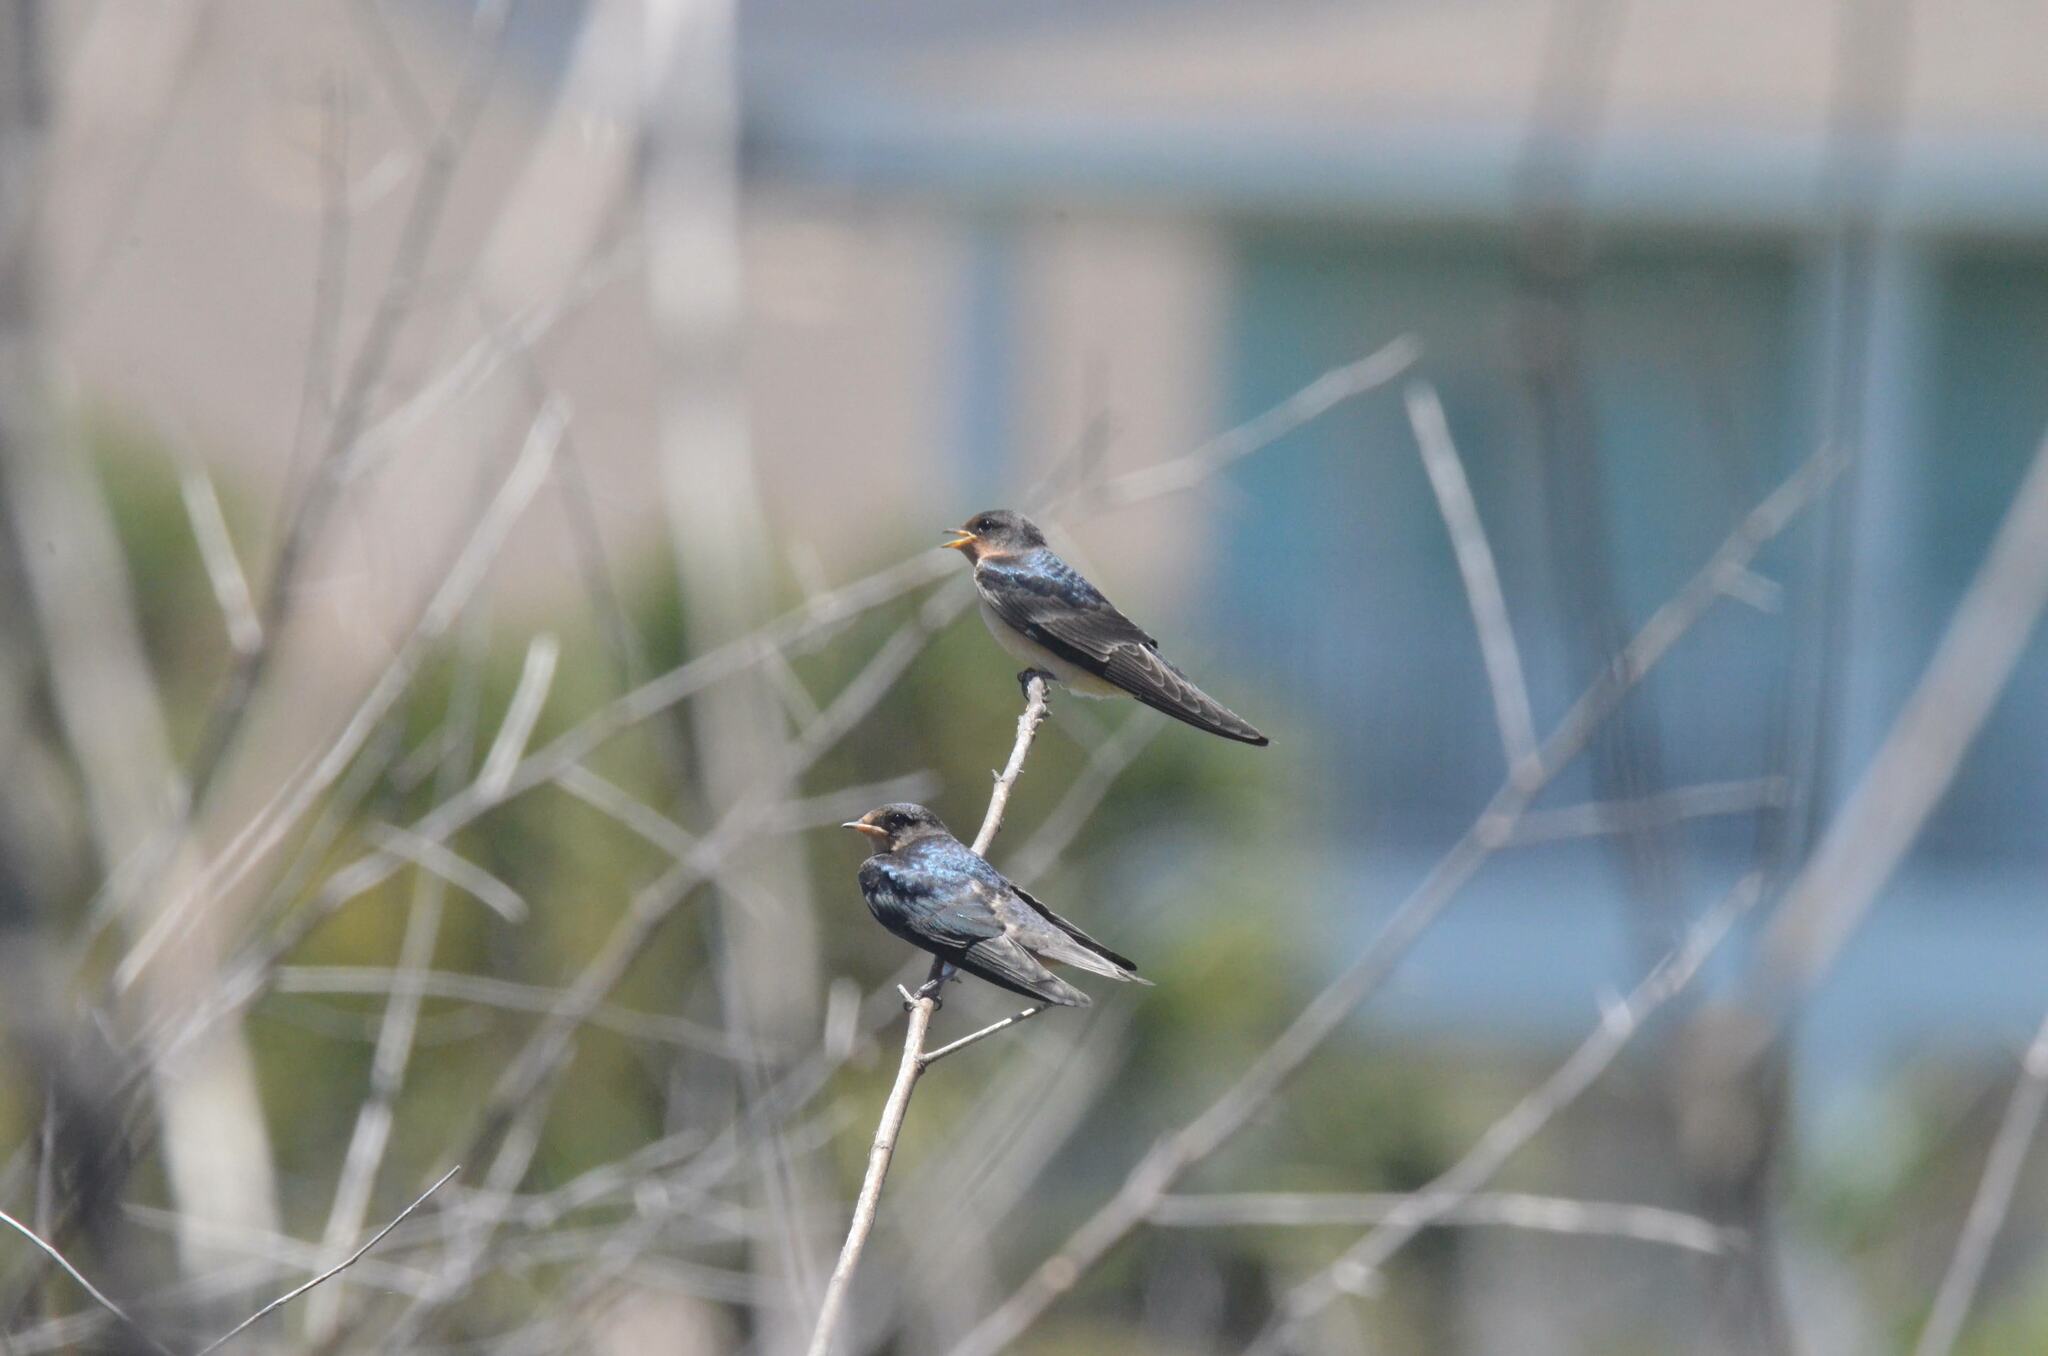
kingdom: Animalia
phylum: Chordata
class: Aves
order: Passeriformes
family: Hirundinidae
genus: Hirundo
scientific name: Hirundo rustica
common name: Barn swallow
